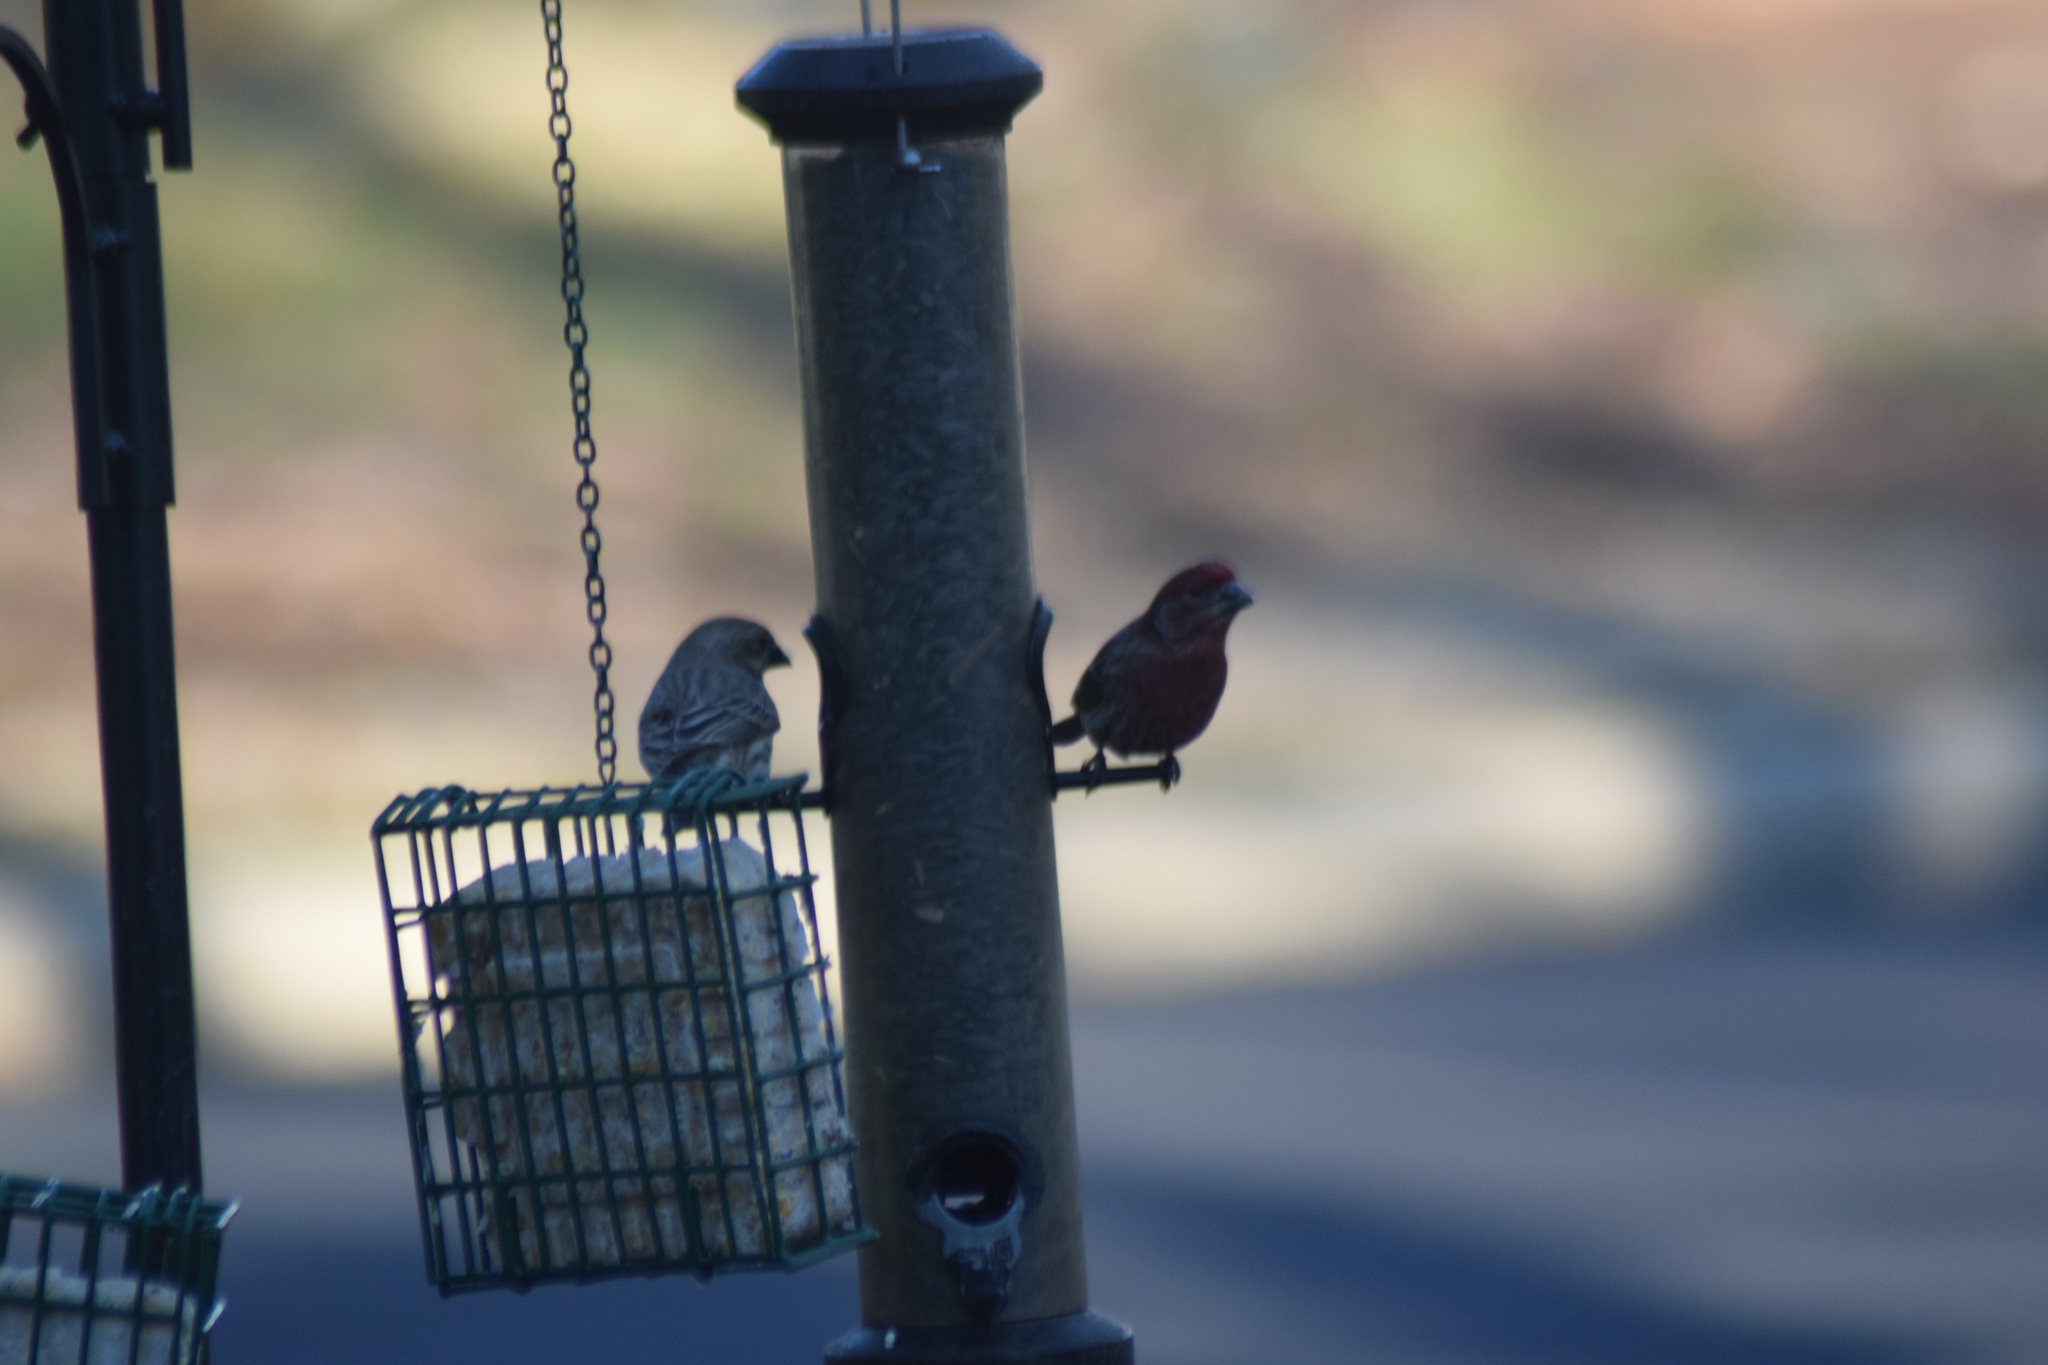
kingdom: Animalia
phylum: Chordata
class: Aves
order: Passeriformes
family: Fringillidae
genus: Haemorhous
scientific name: Haemorhous mexicanus
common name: House finch
